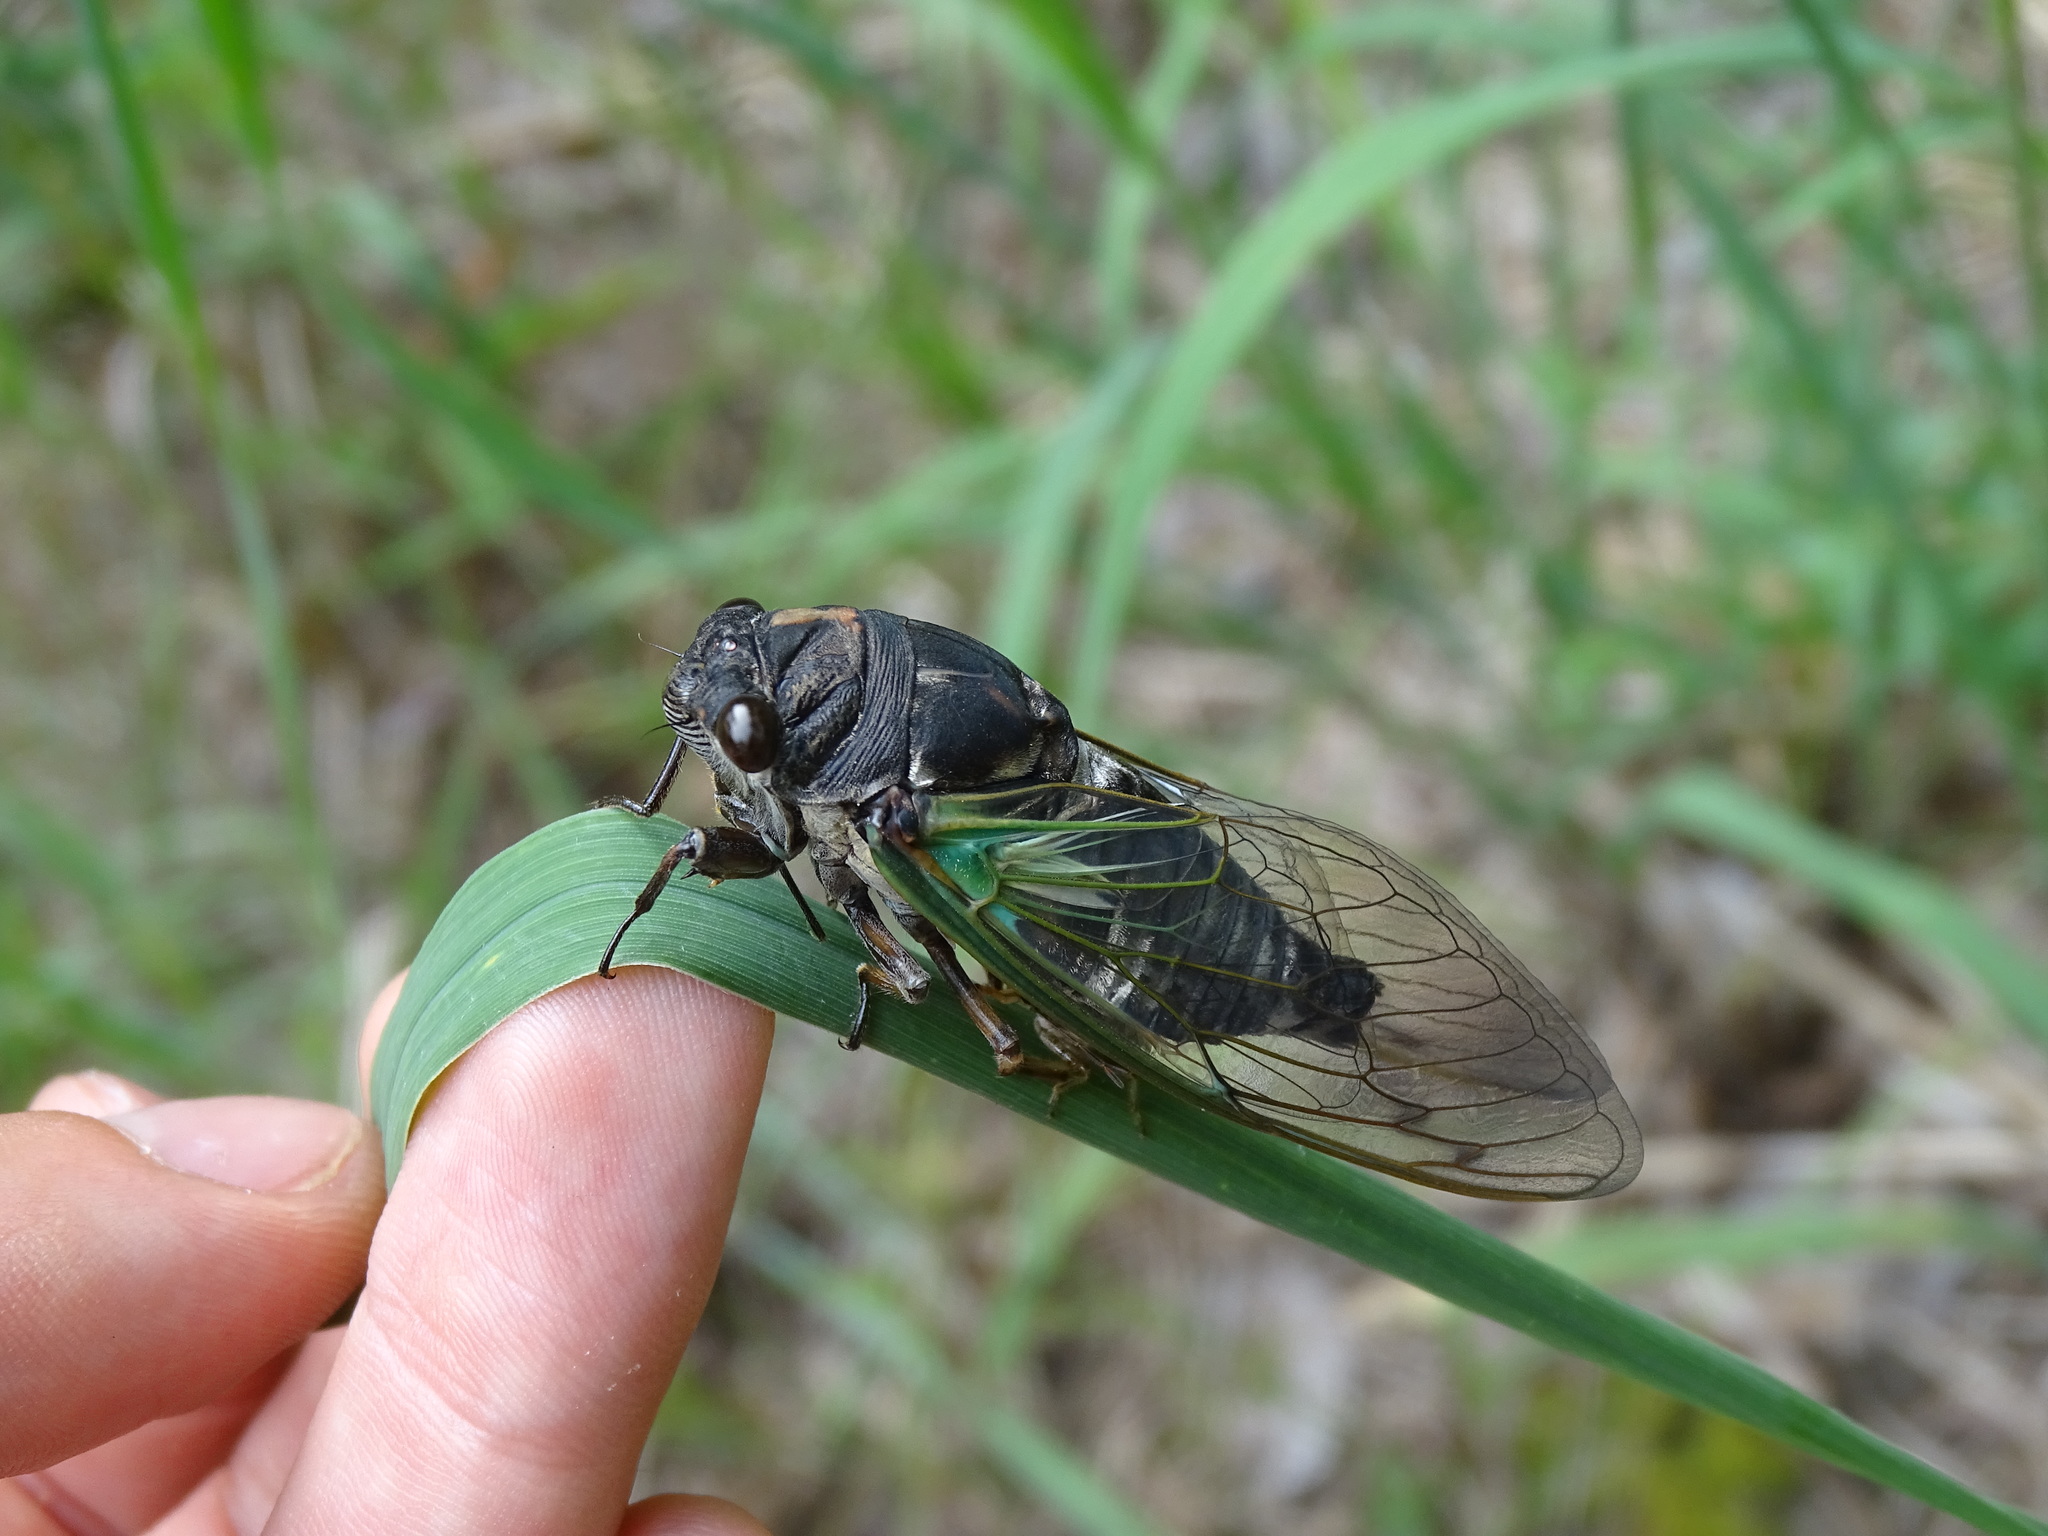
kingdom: Animalia
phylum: Arthropoda
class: Insecta
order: Hemiptera
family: Cicadidae
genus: Neotibicen
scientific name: Neotibicen lyricen
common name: Lyric cicada
